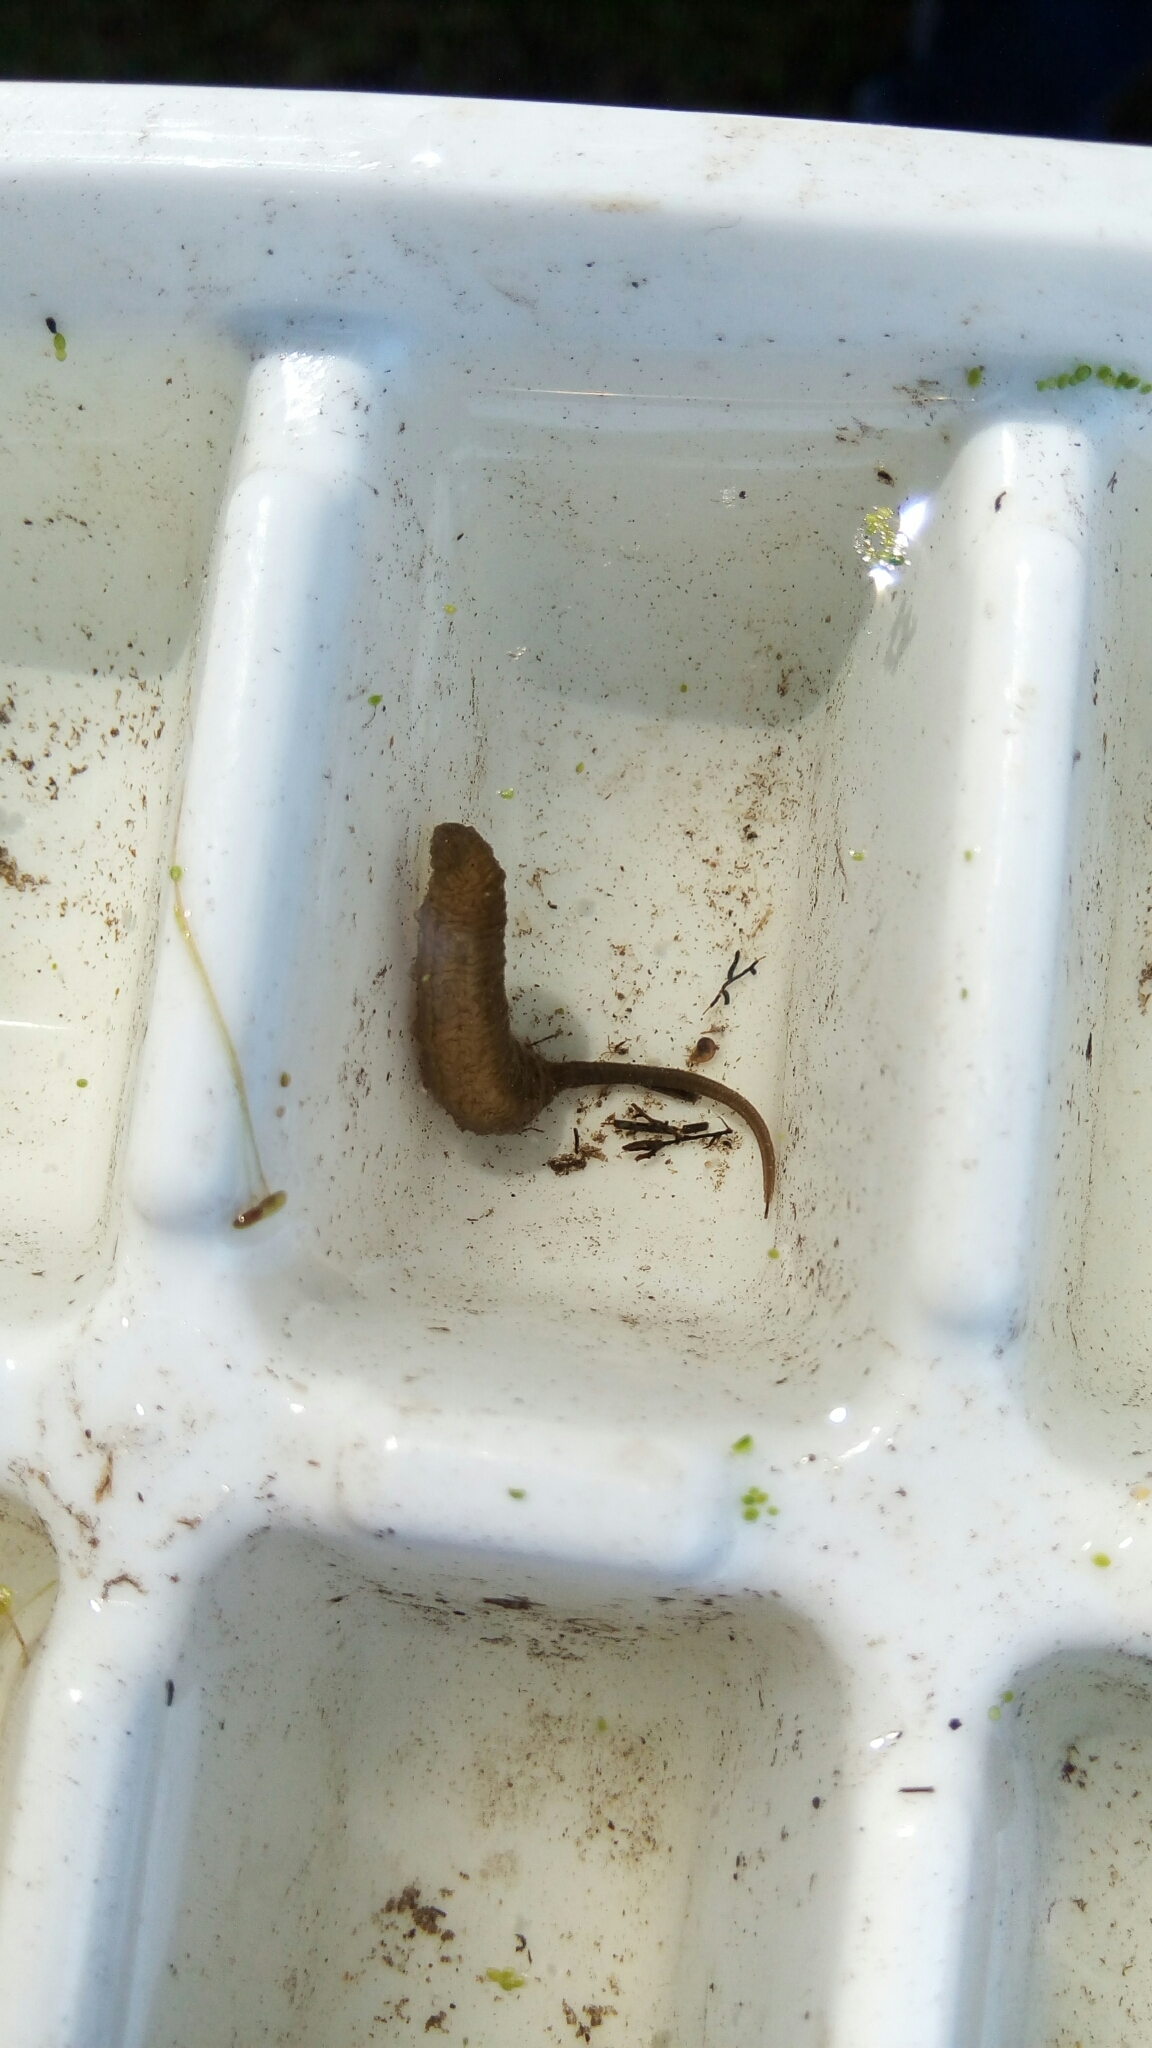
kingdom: Animalia
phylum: Arthropoda
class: Insecta
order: Diptera
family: Syrphidae
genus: Eristalis
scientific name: Eristalis tenax
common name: Drone fly
